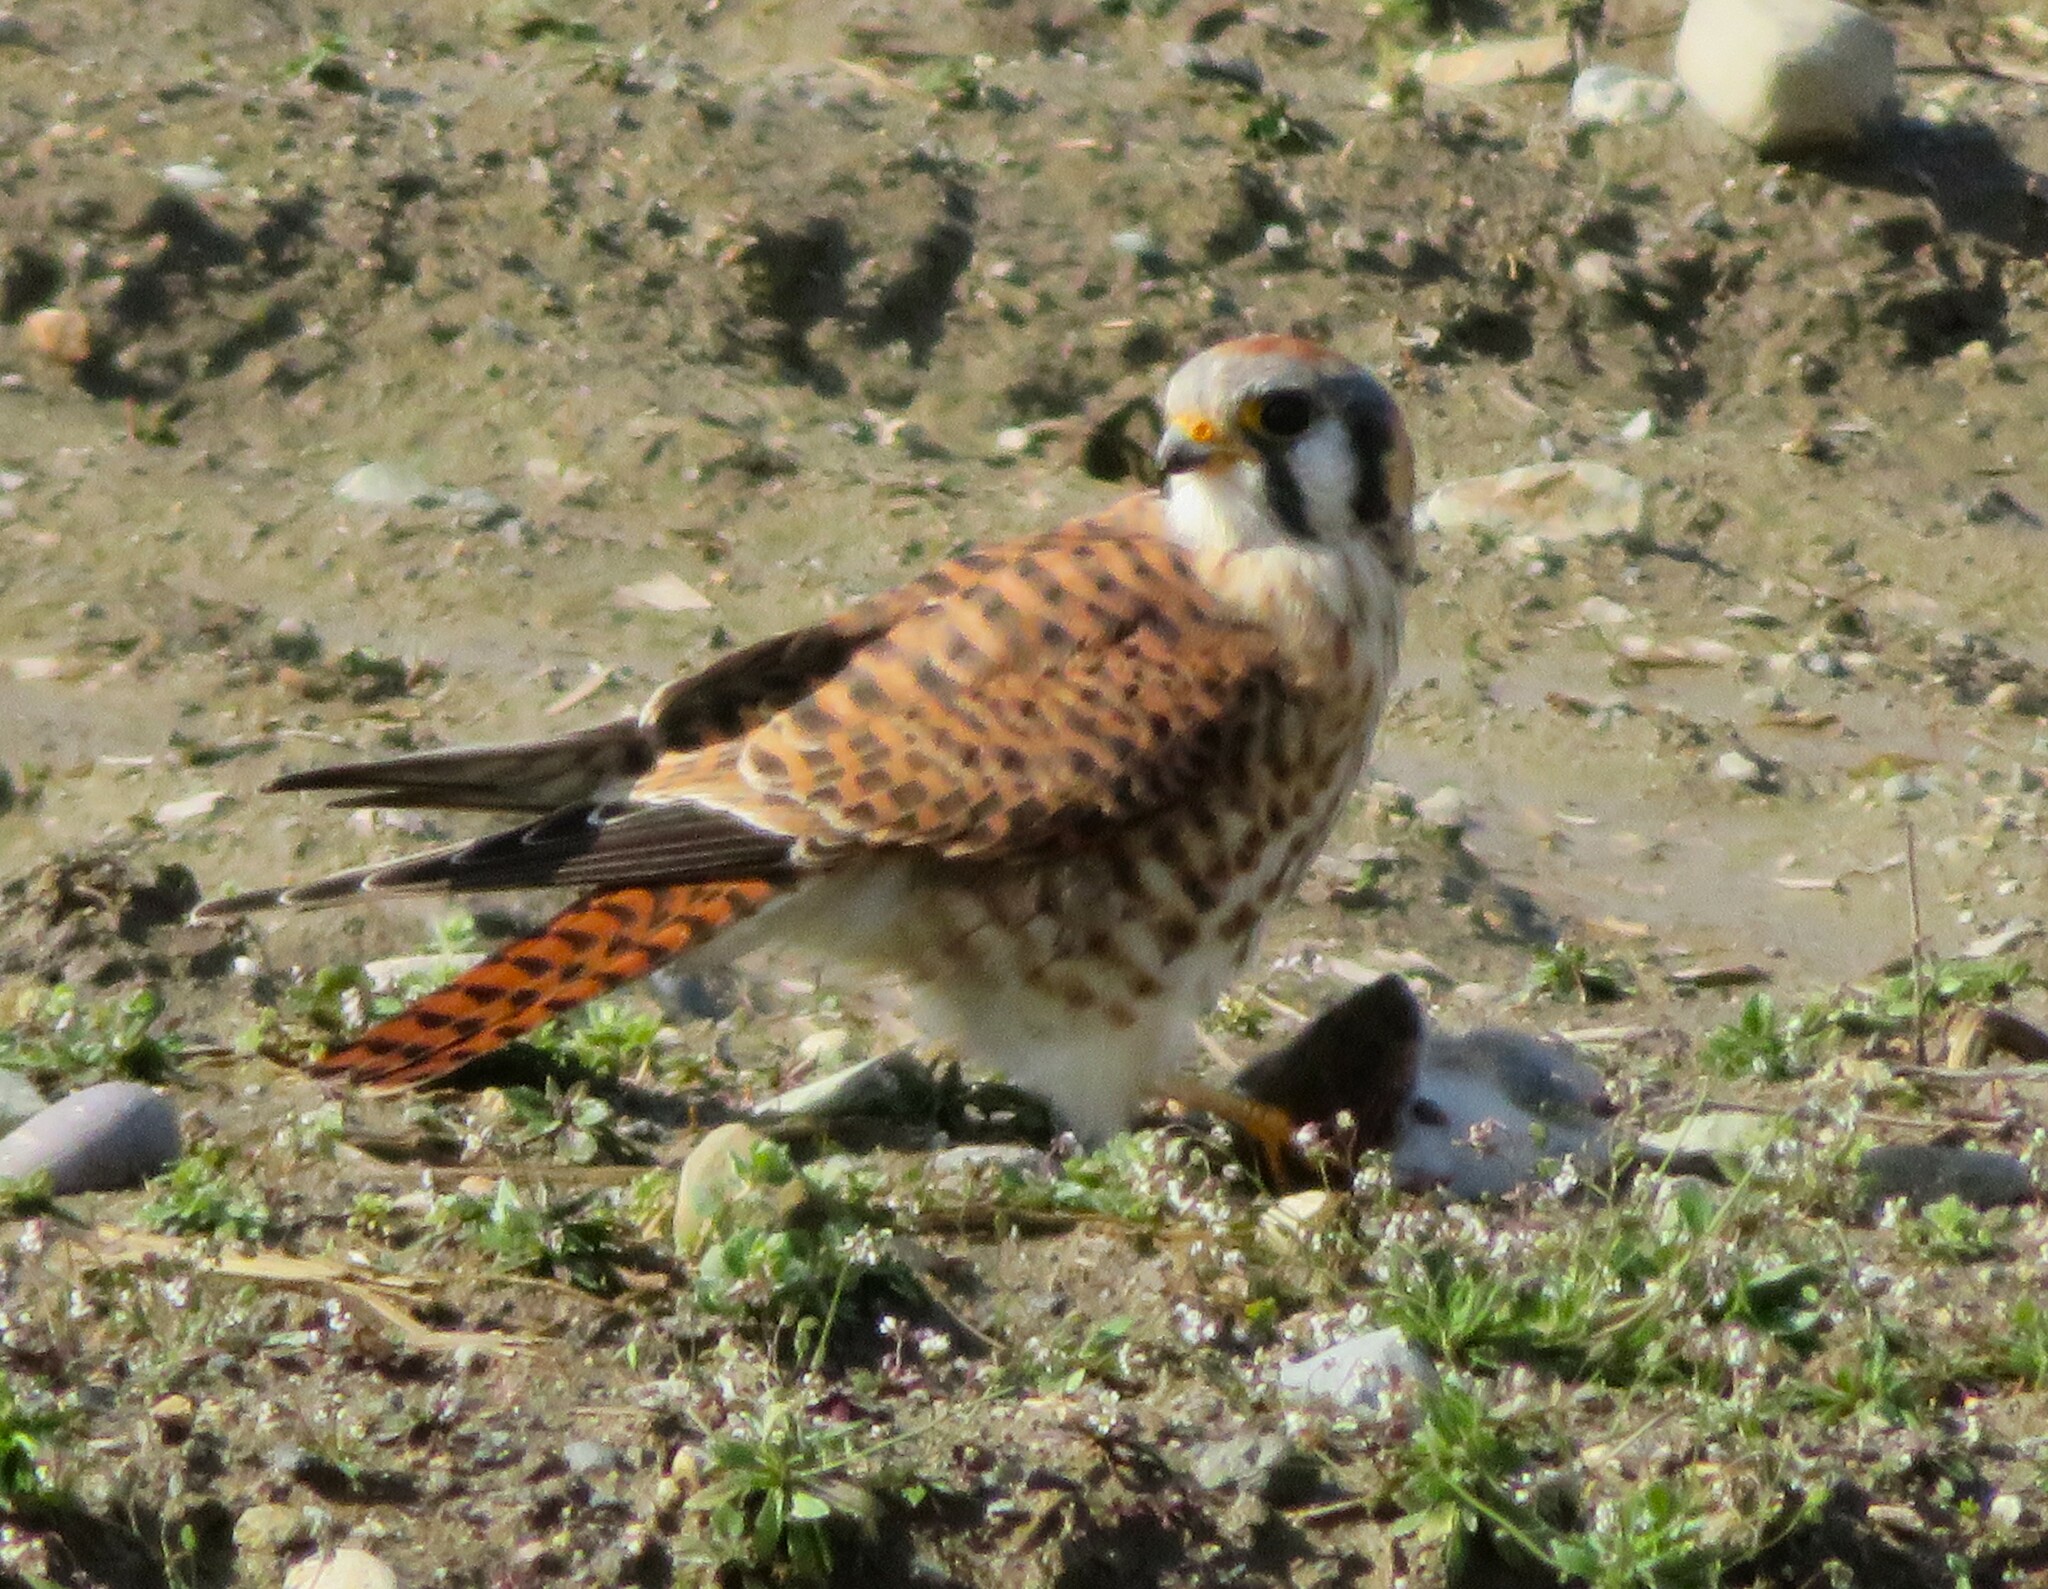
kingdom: Animalia
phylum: Chordata
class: Aves
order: Falconiformes
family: Falconidae
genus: Falco
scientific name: Falco sparverius
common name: American kestrel
